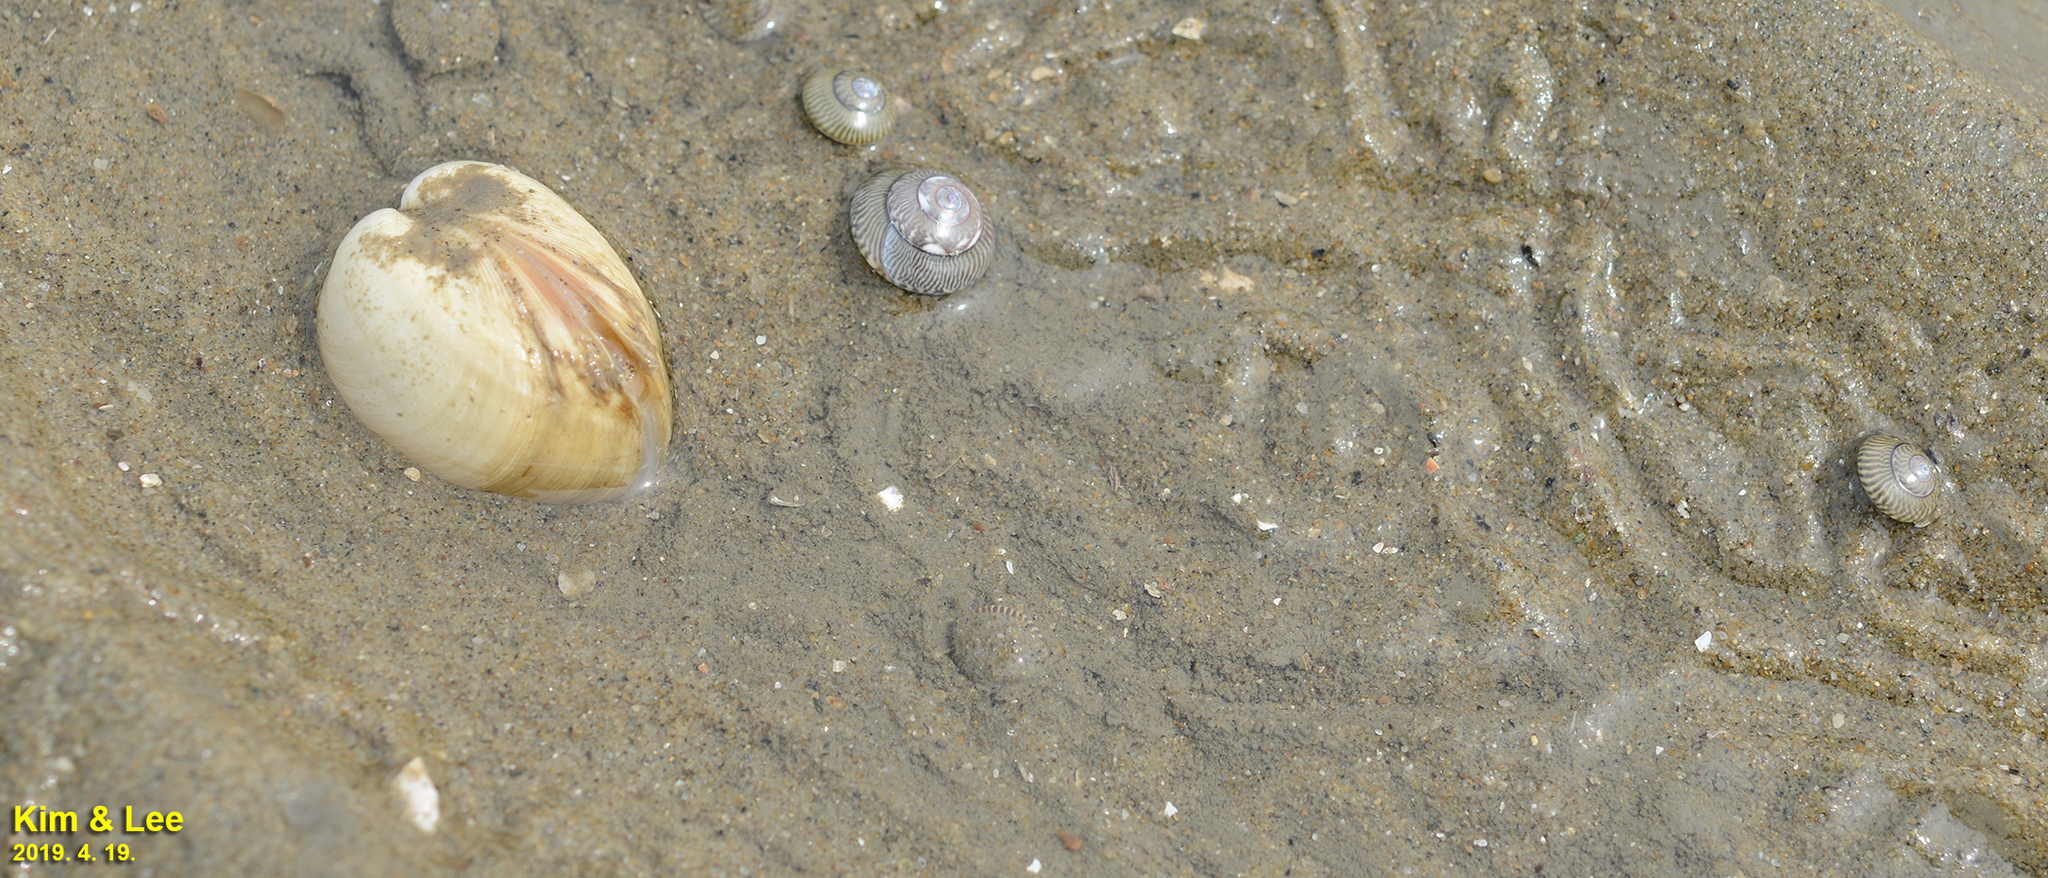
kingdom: Animalia
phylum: Mollusca
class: Bivalvia
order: Venerida
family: Mactridae
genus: Mactra
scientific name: Mactra quadrangularis
